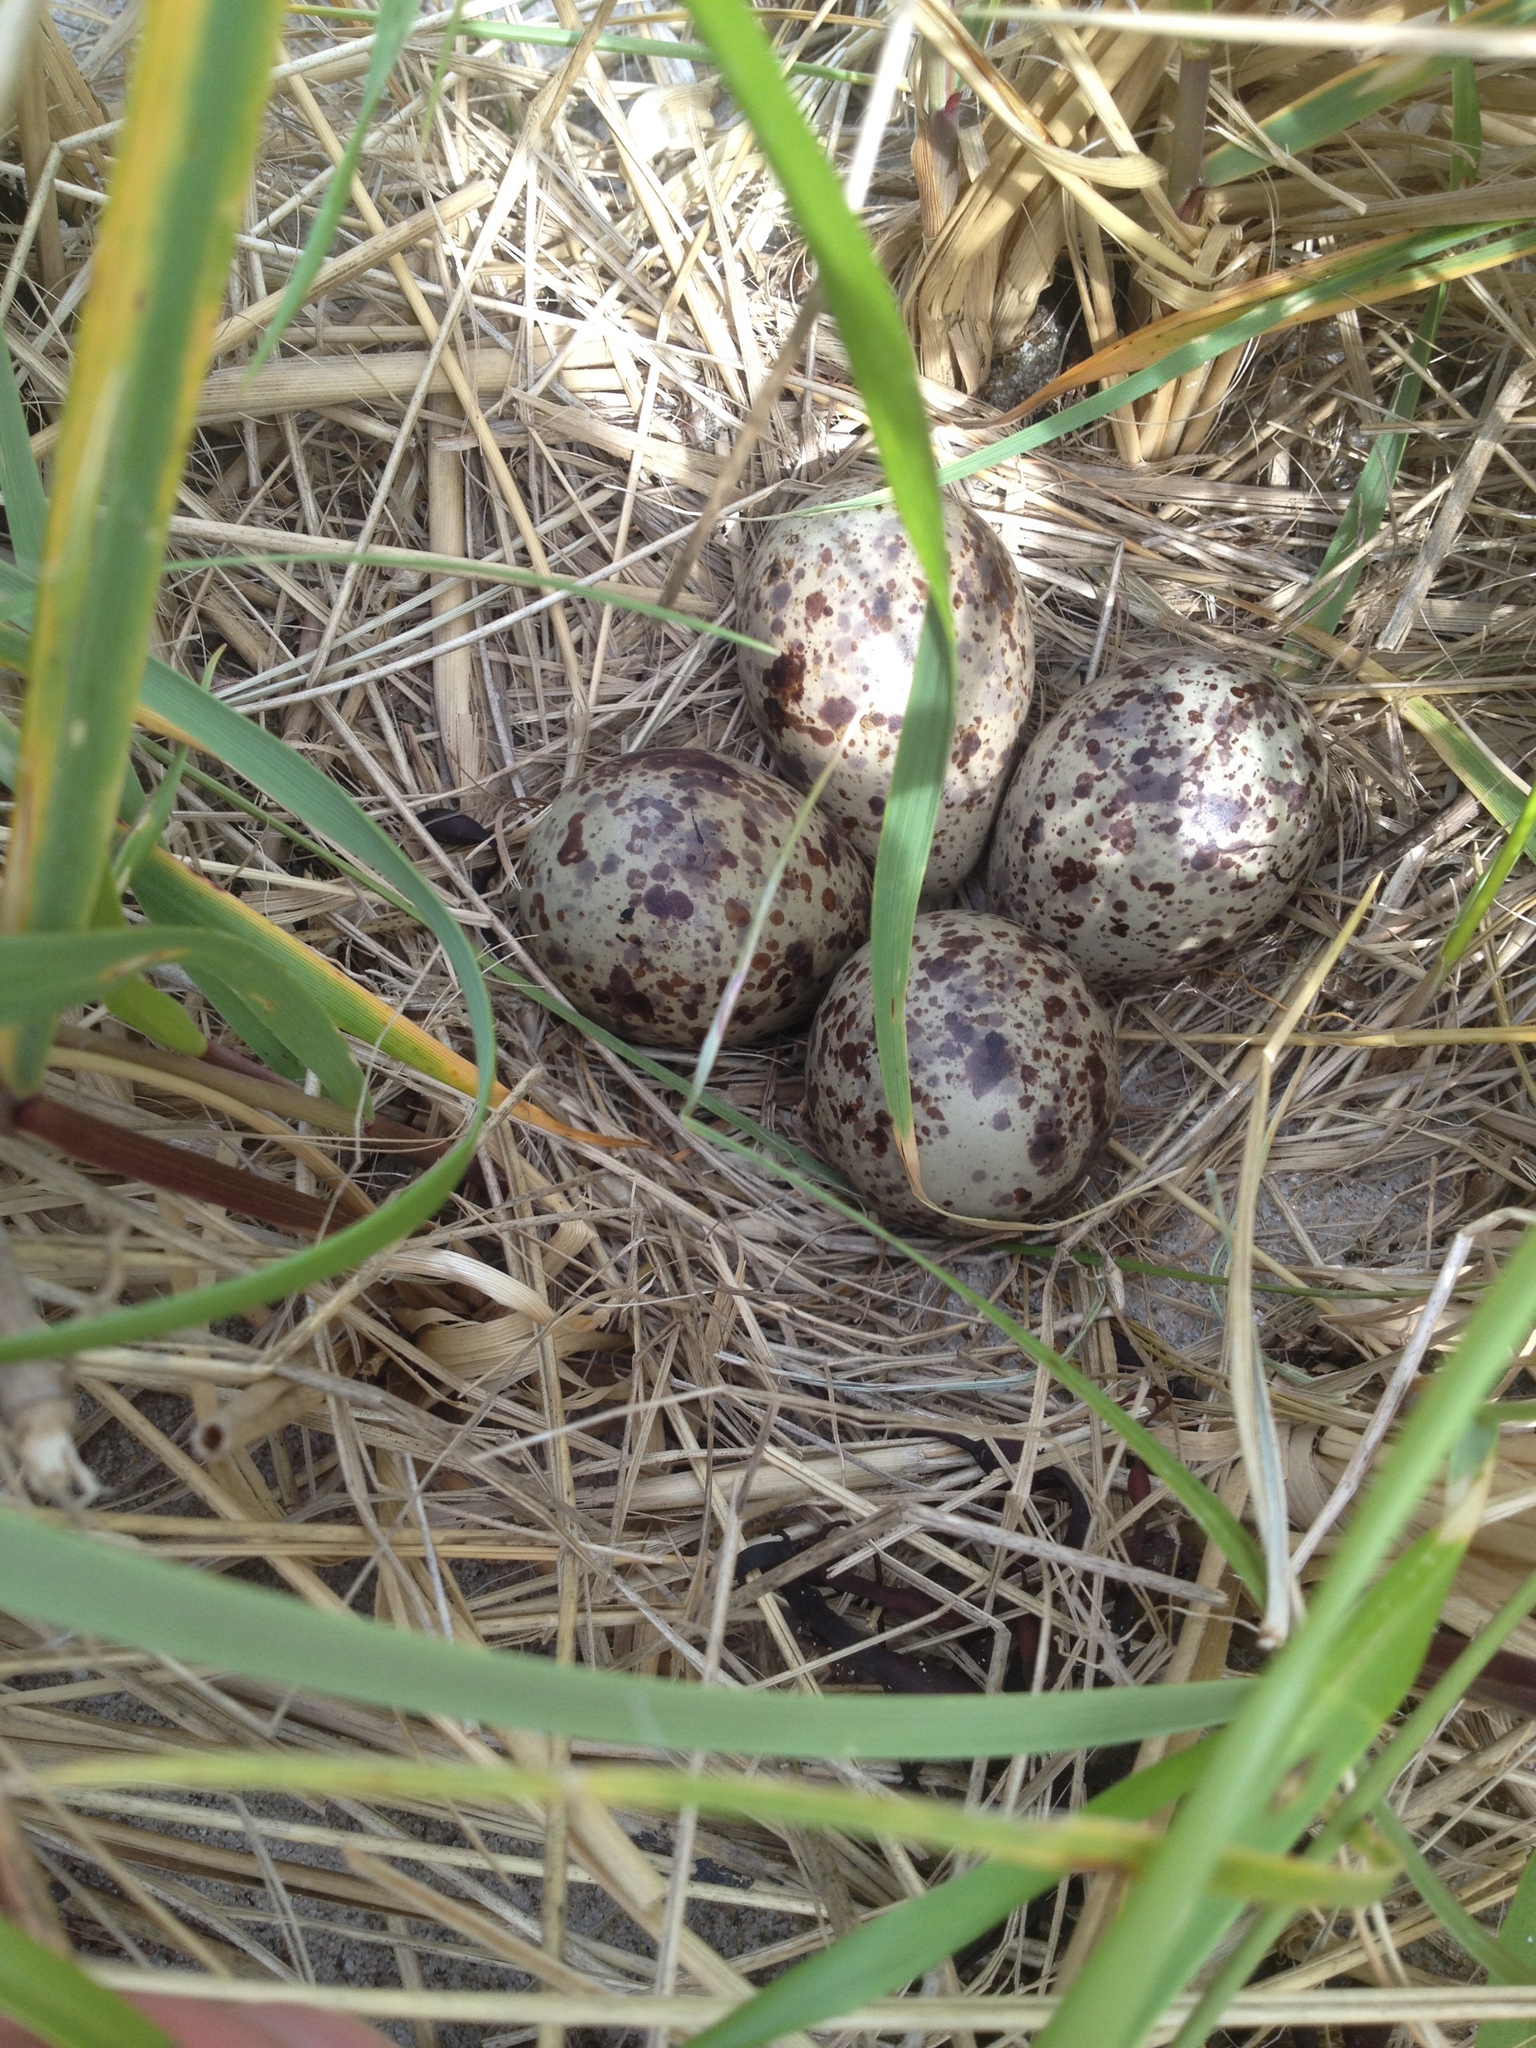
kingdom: Animalia
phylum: Chordata
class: Aves
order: Charadriiformes
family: Scolopacidae
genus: Tringa
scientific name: Tringa semipalmata
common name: Willet
